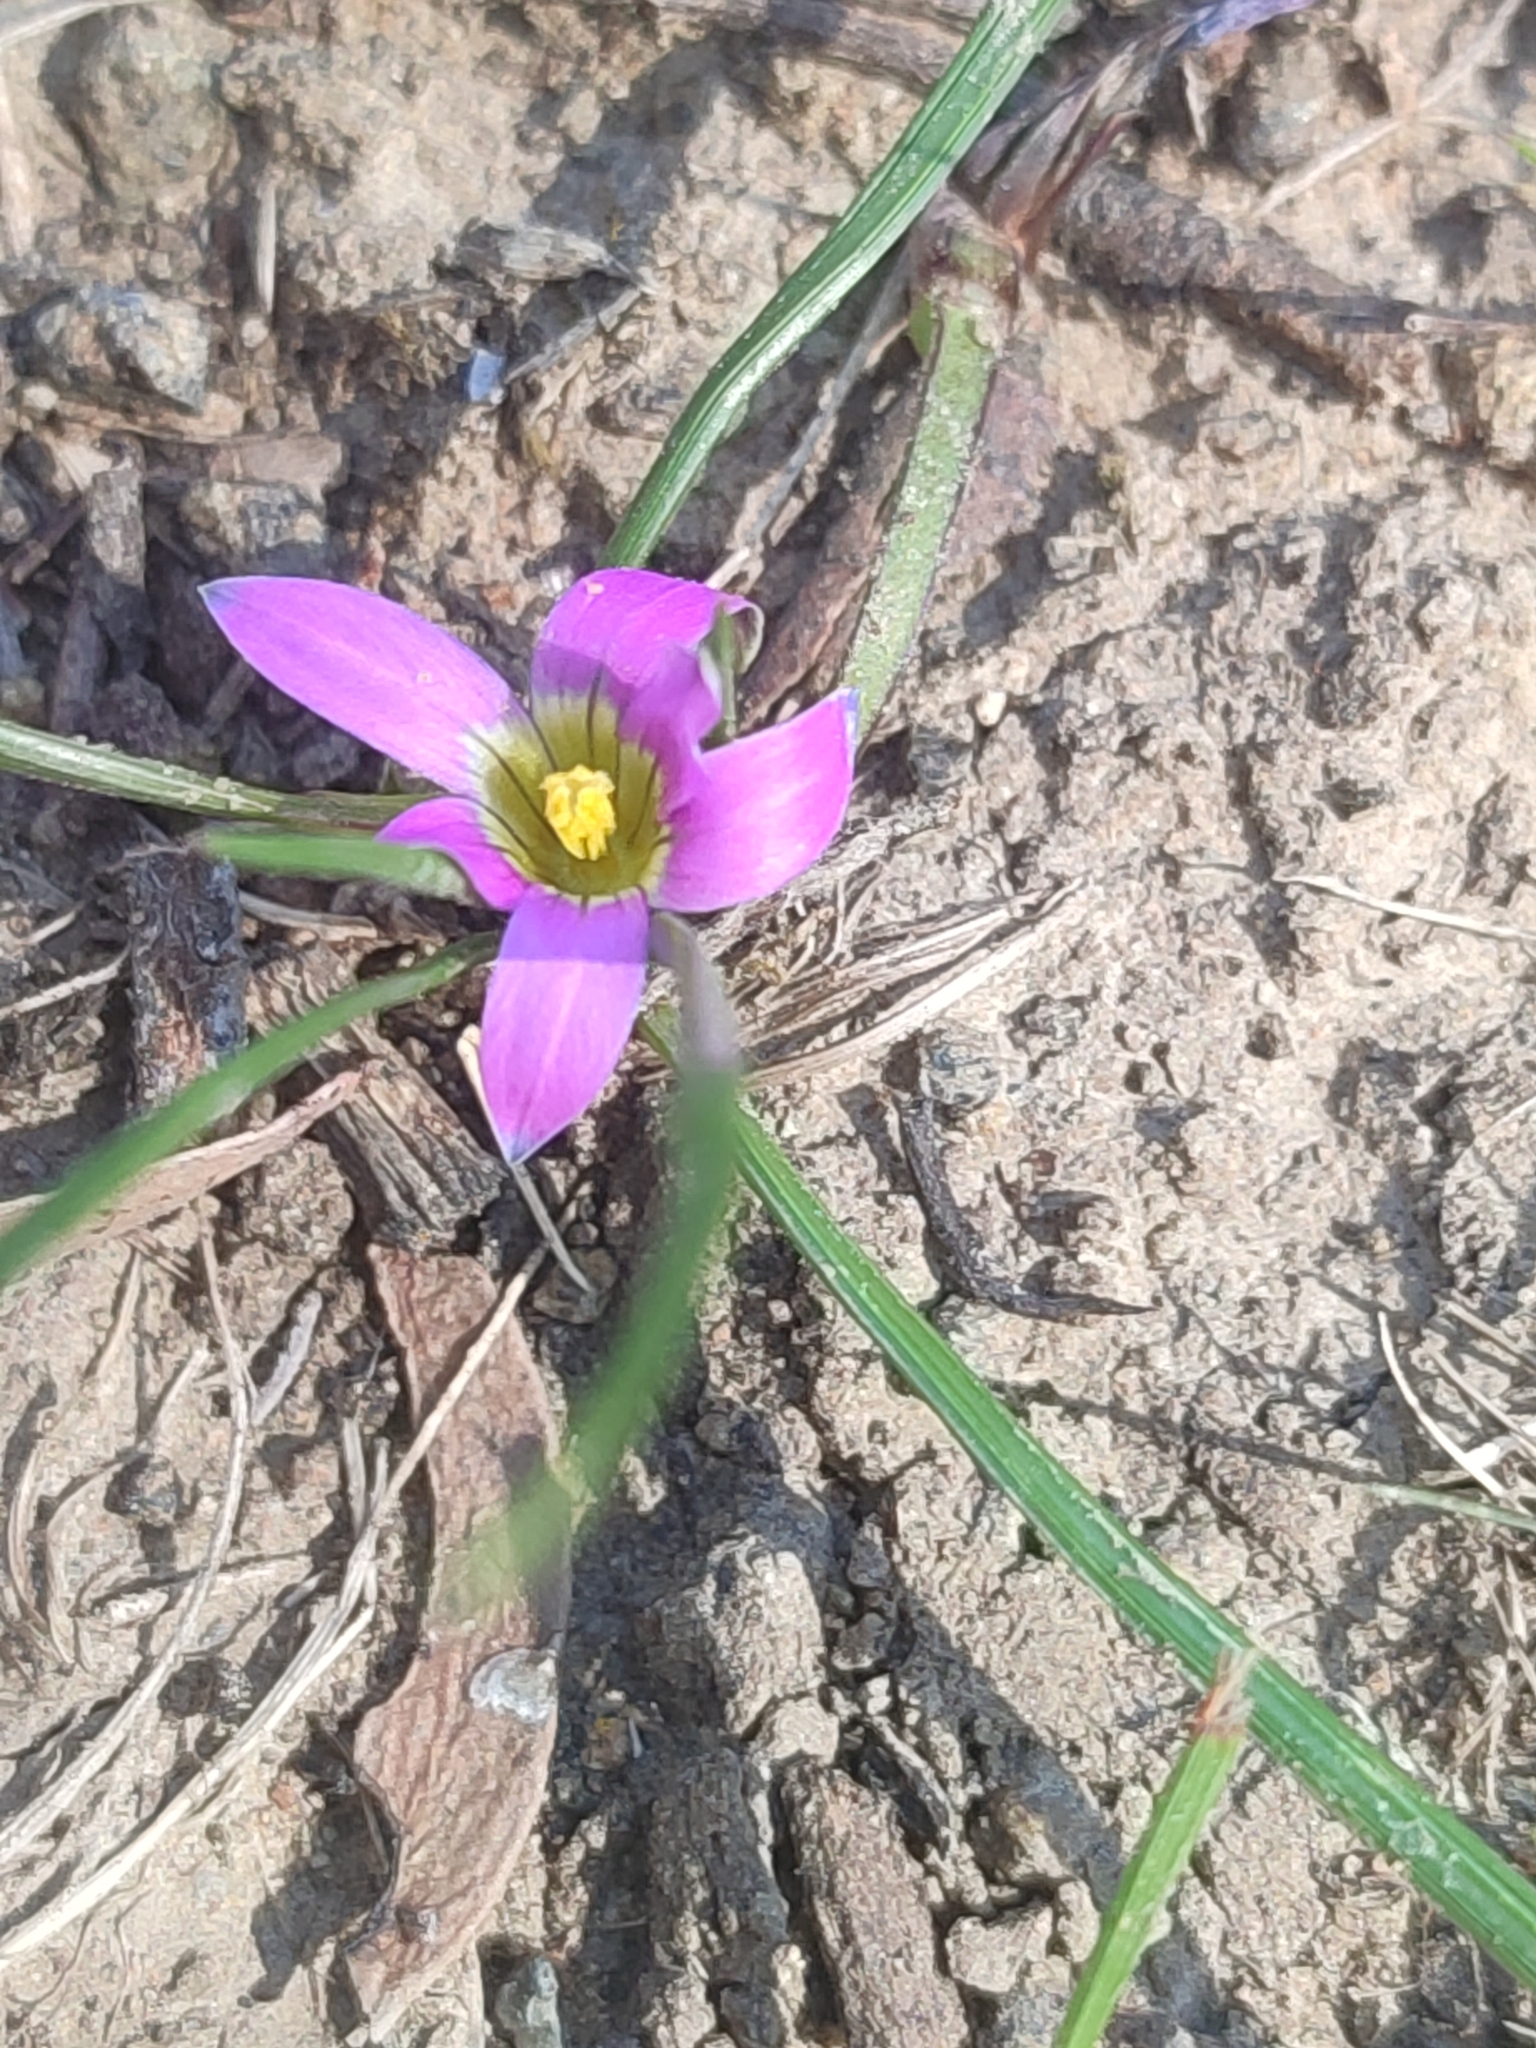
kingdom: Plantae
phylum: Tracheophyta
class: Liliopsida
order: Asparagales
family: Iridaceae
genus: Romulea
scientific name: Romulea rosea
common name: Oniongrass
